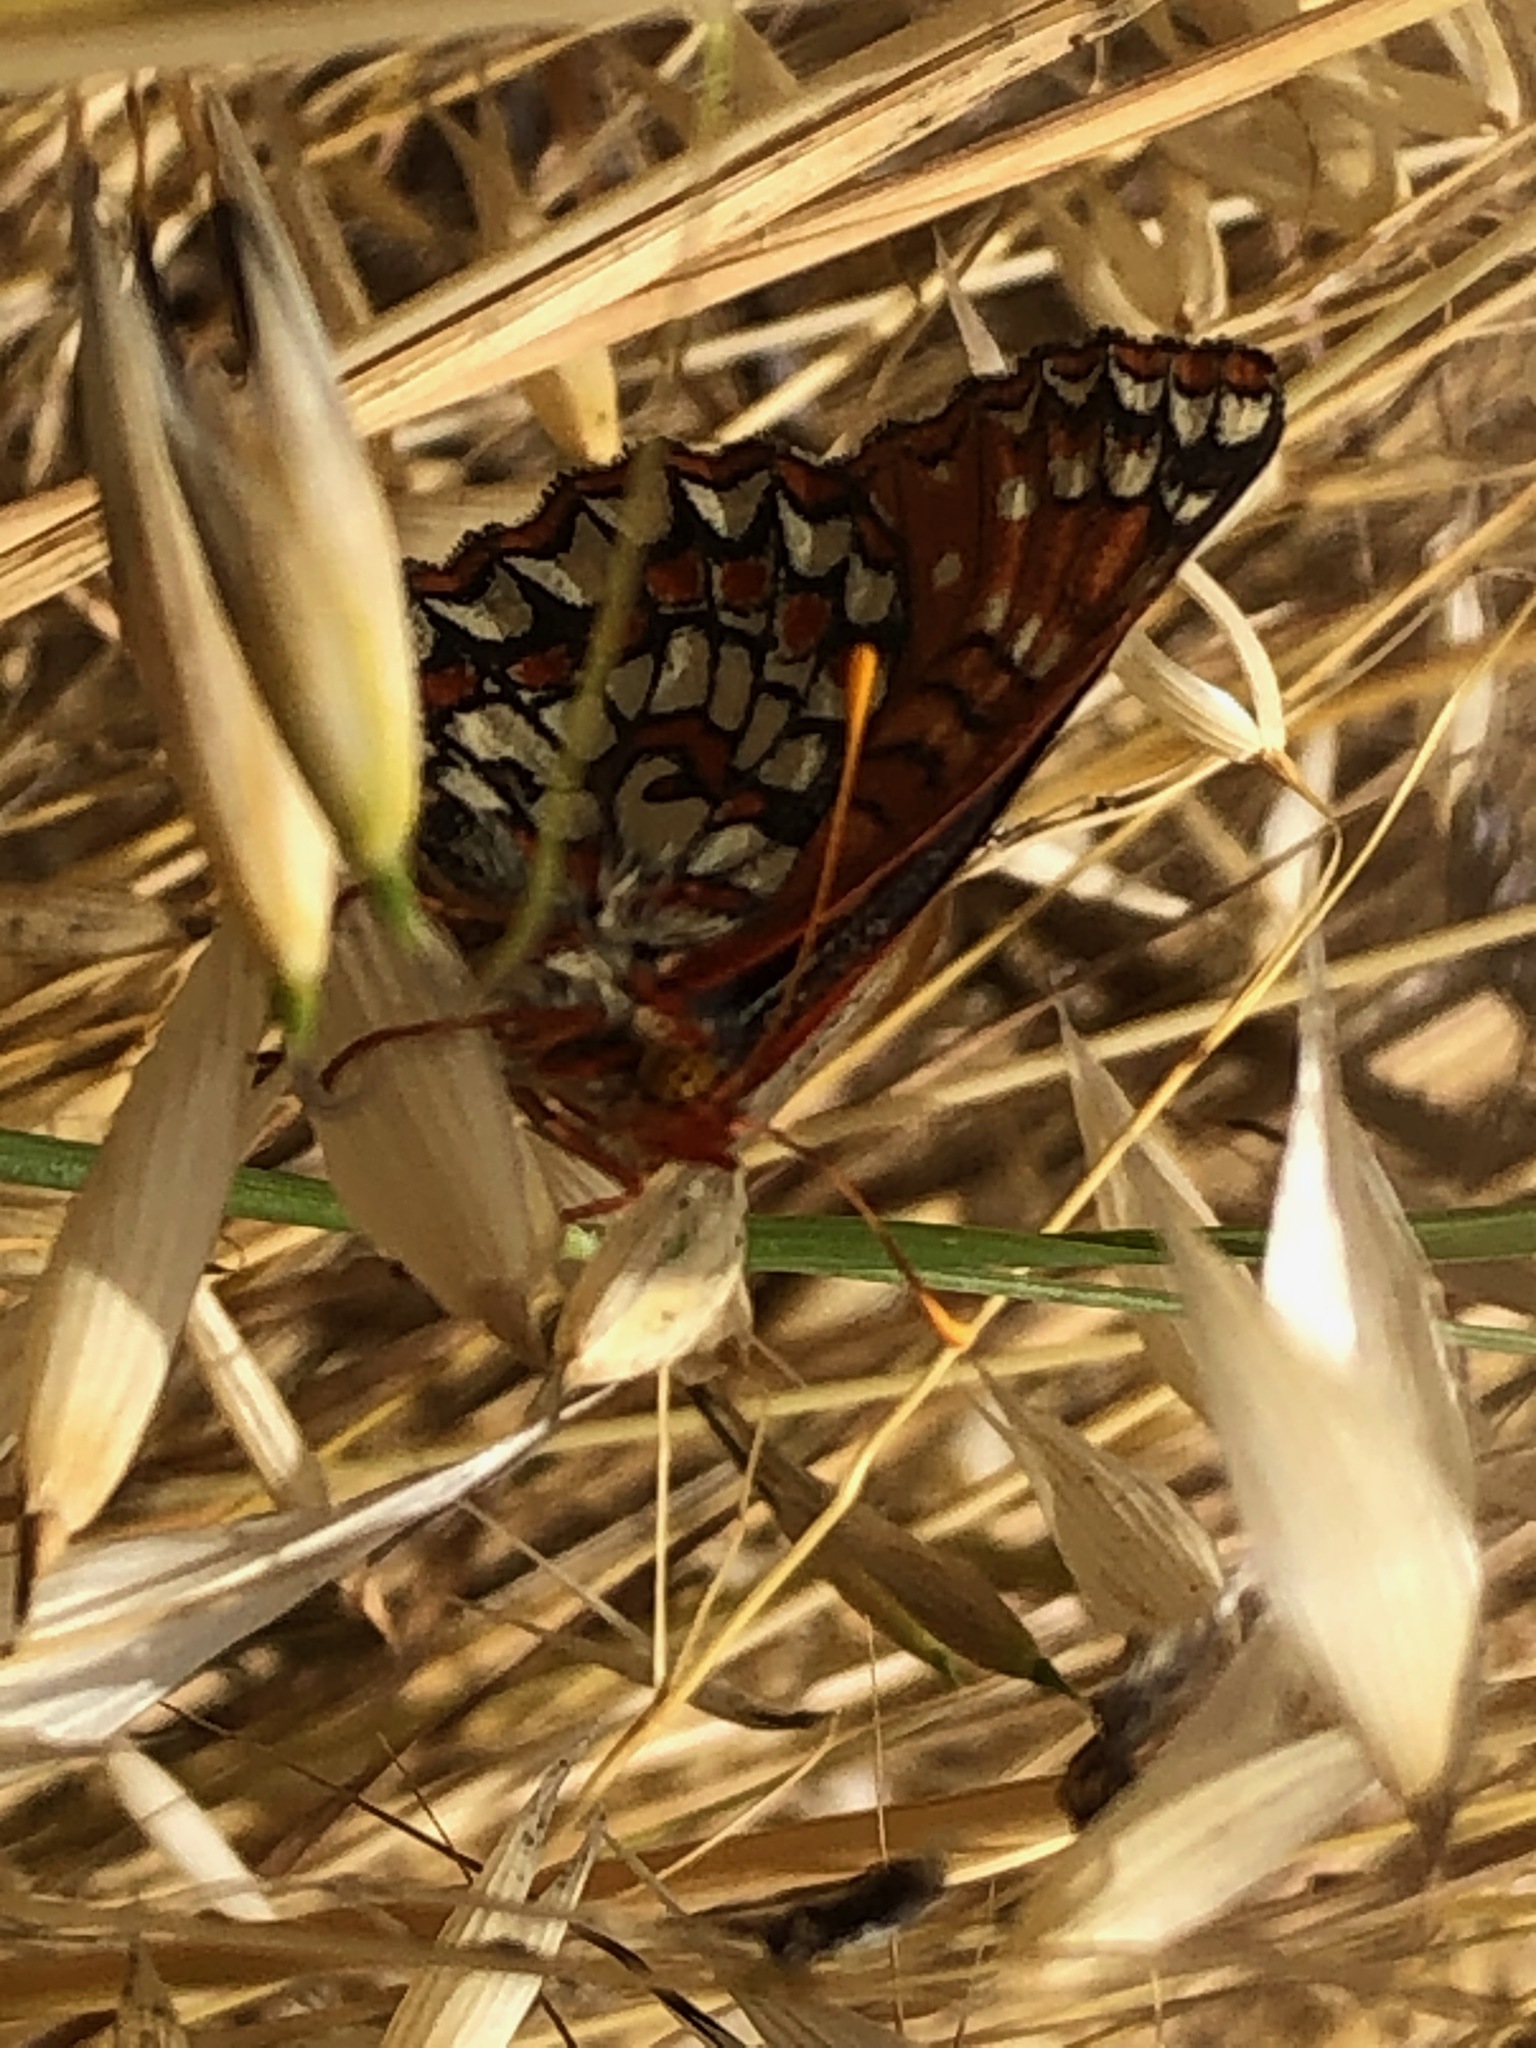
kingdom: Animalia
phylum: Arthropoda
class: Insecta
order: Lepidoptera
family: Nymphalidae
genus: Occidryas
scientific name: Occidryas chalcedona
